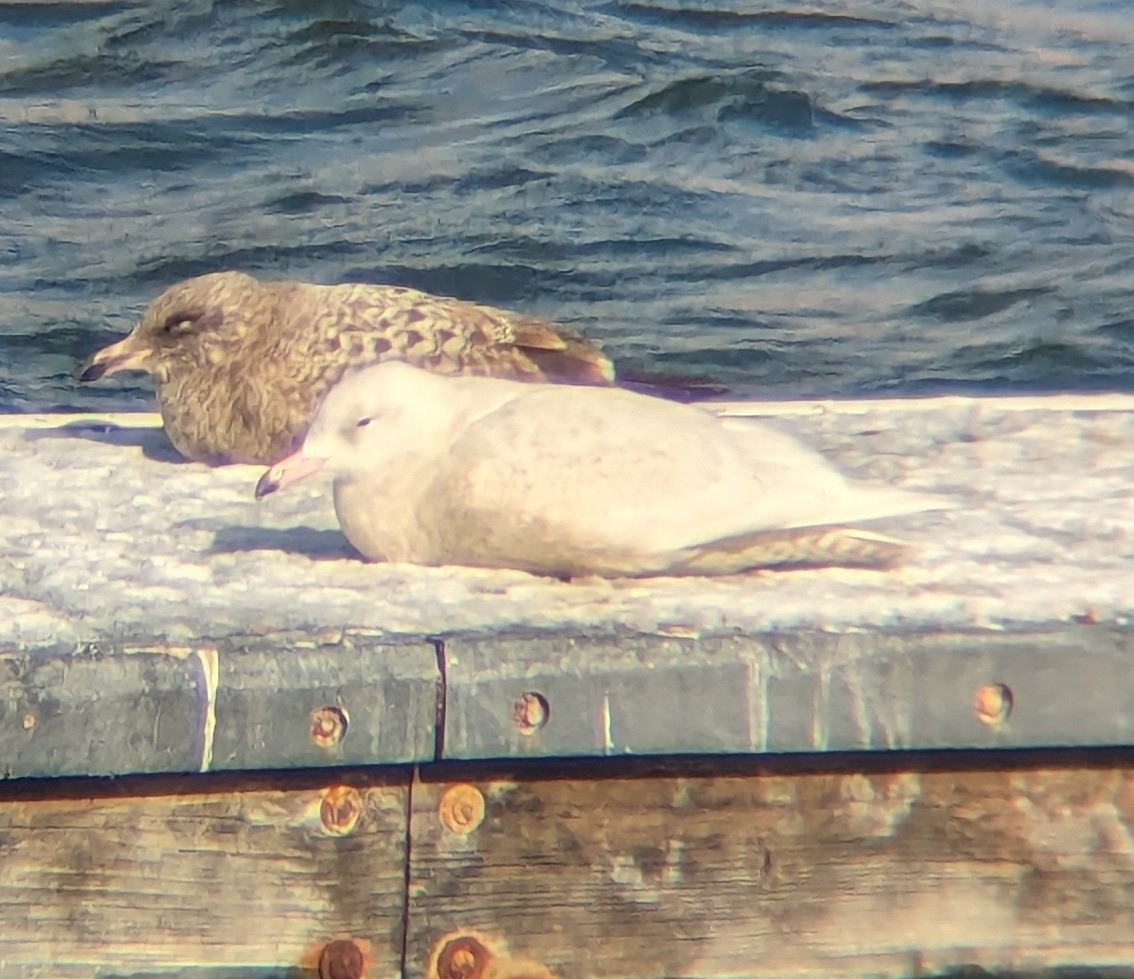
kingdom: Animalia
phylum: Chordata
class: Aves
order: Charadriiformes
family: Laridae
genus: Larus
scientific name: Larus hyperboreus
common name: Glaucous gull
